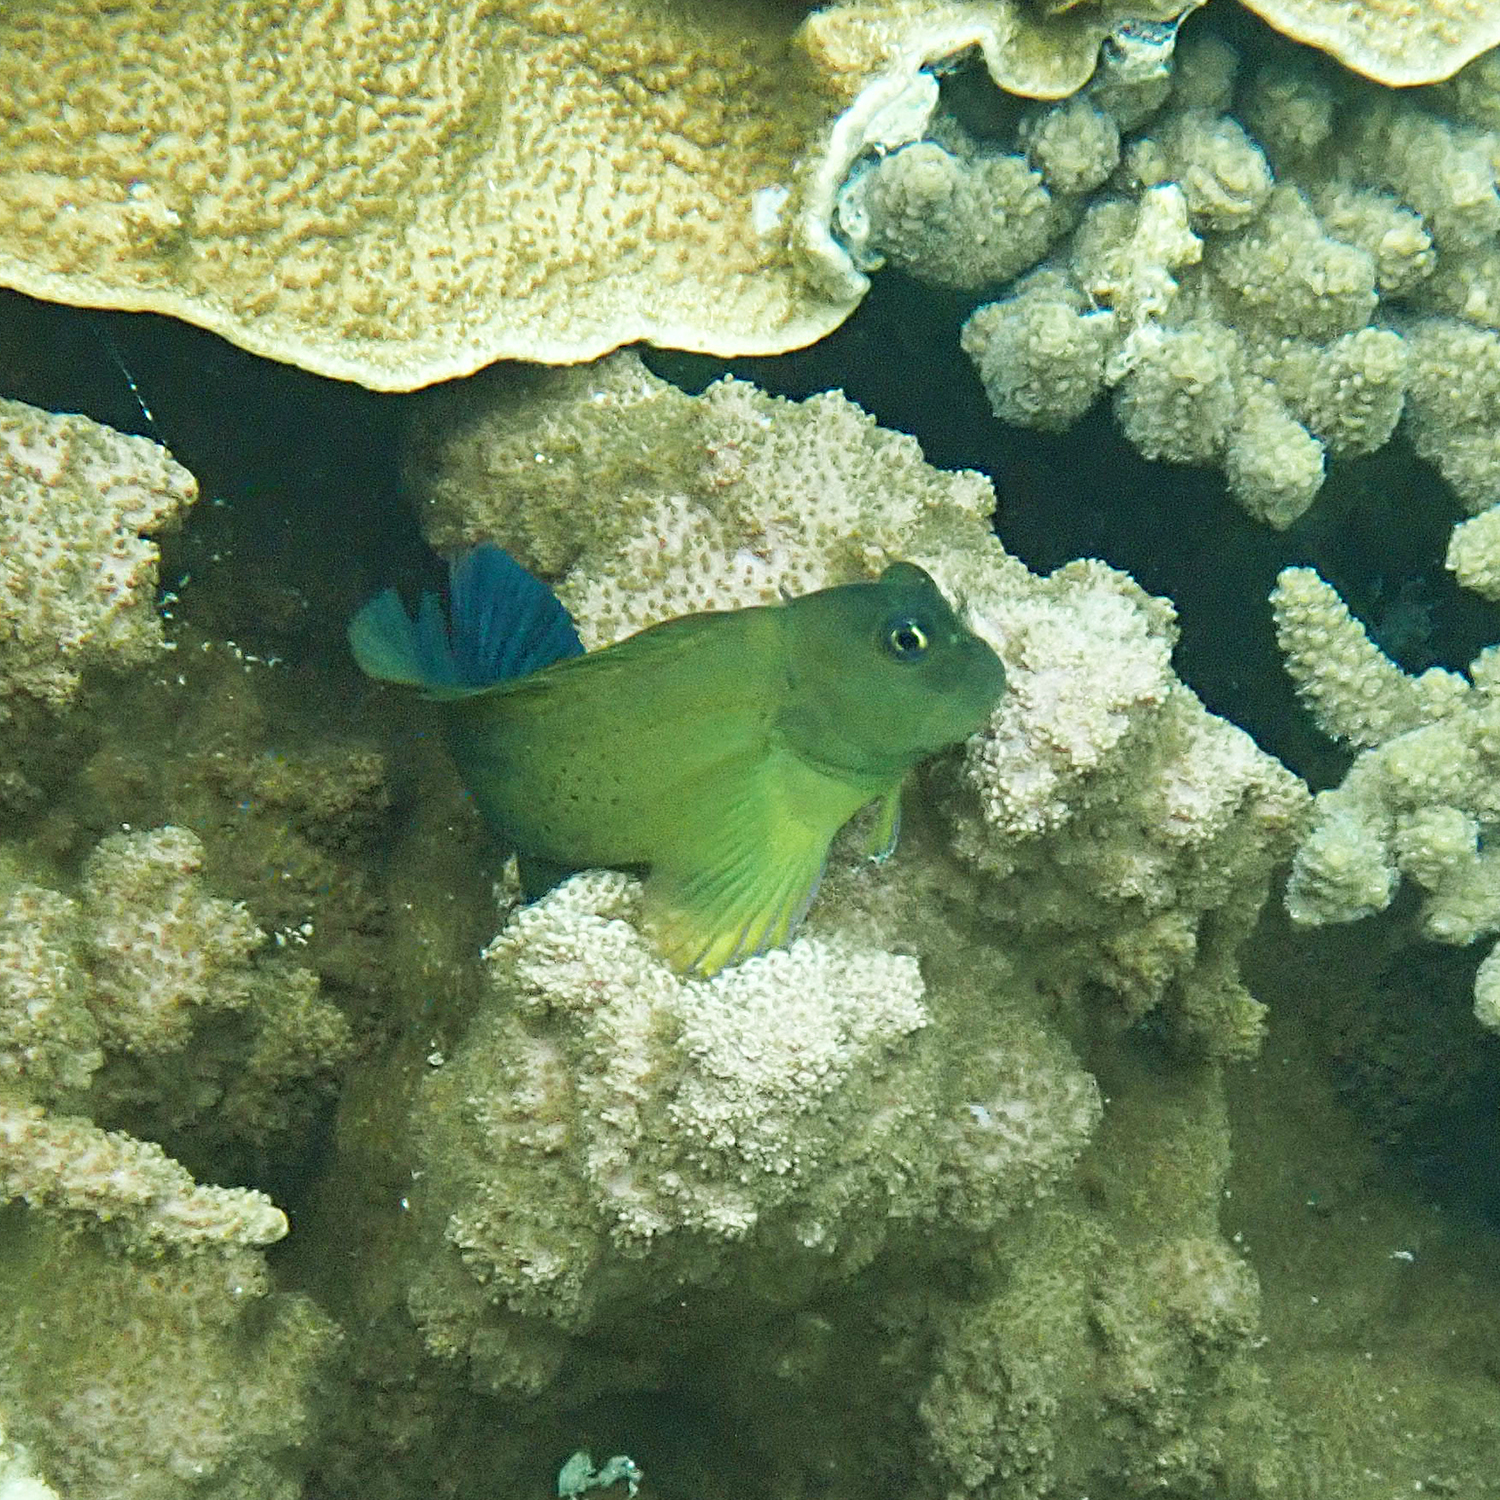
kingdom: Animalia
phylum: Chordata
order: Perciformes
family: Blenniidae
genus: Cirripectes
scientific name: Cirripectes chelomatus
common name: Lady musgrave blenny
